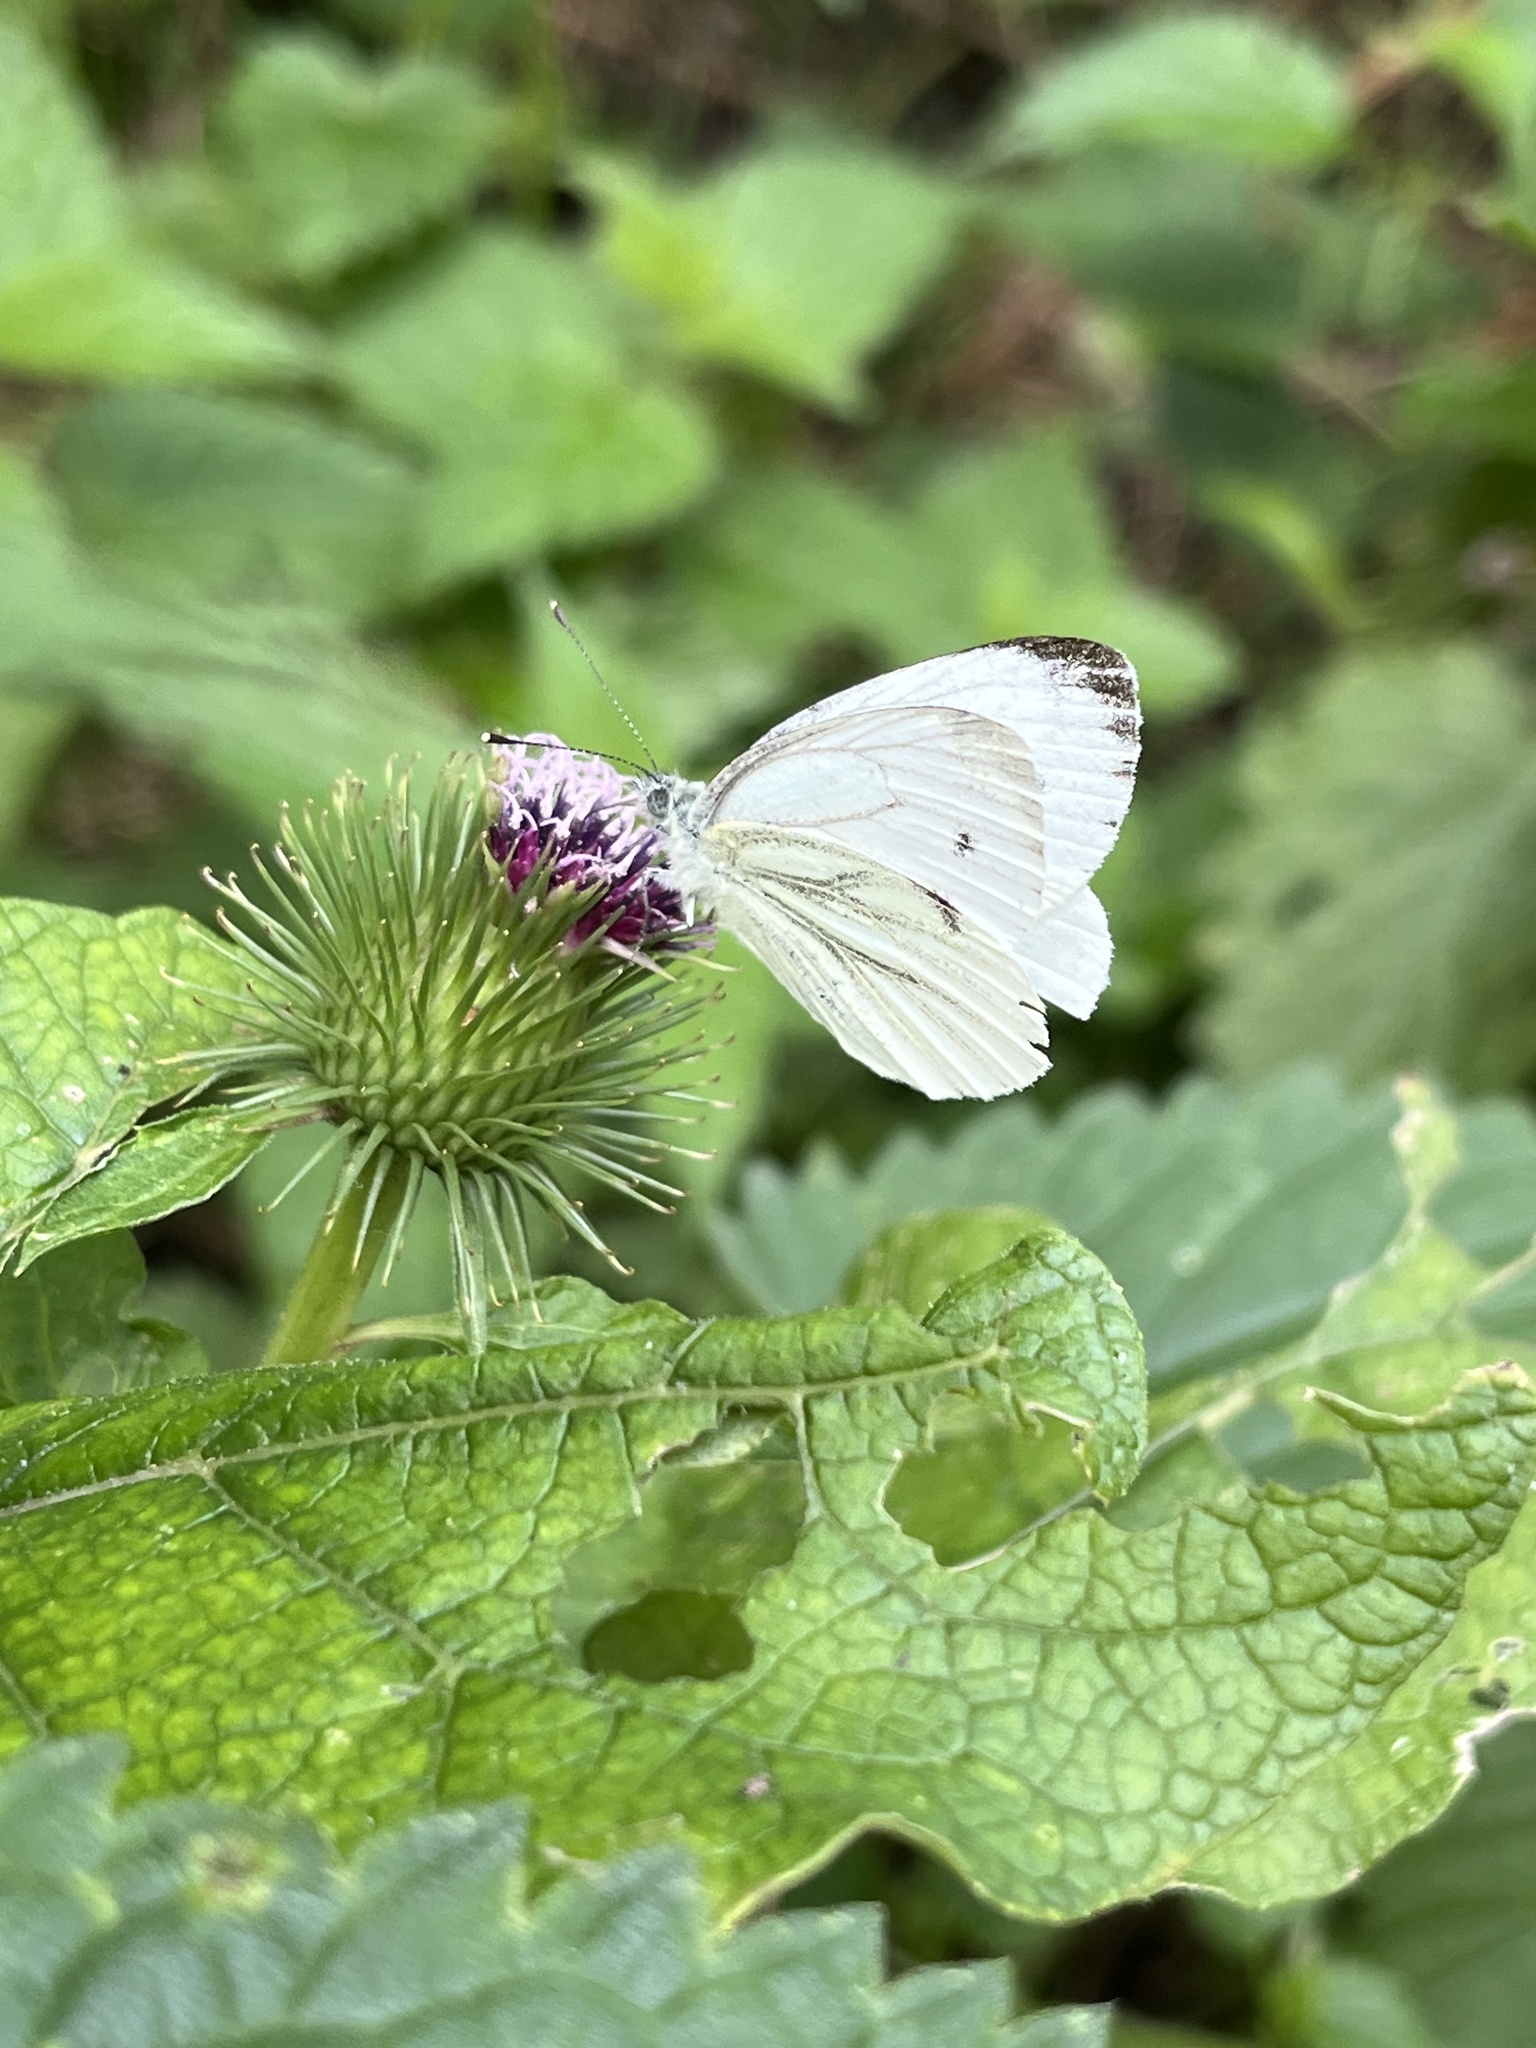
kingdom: Animalia
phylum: Arthropoda
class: Insecta
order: Lepidoptera
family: Pieridae
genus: Pieris
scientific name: Pieris napi
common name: Green-veined white
